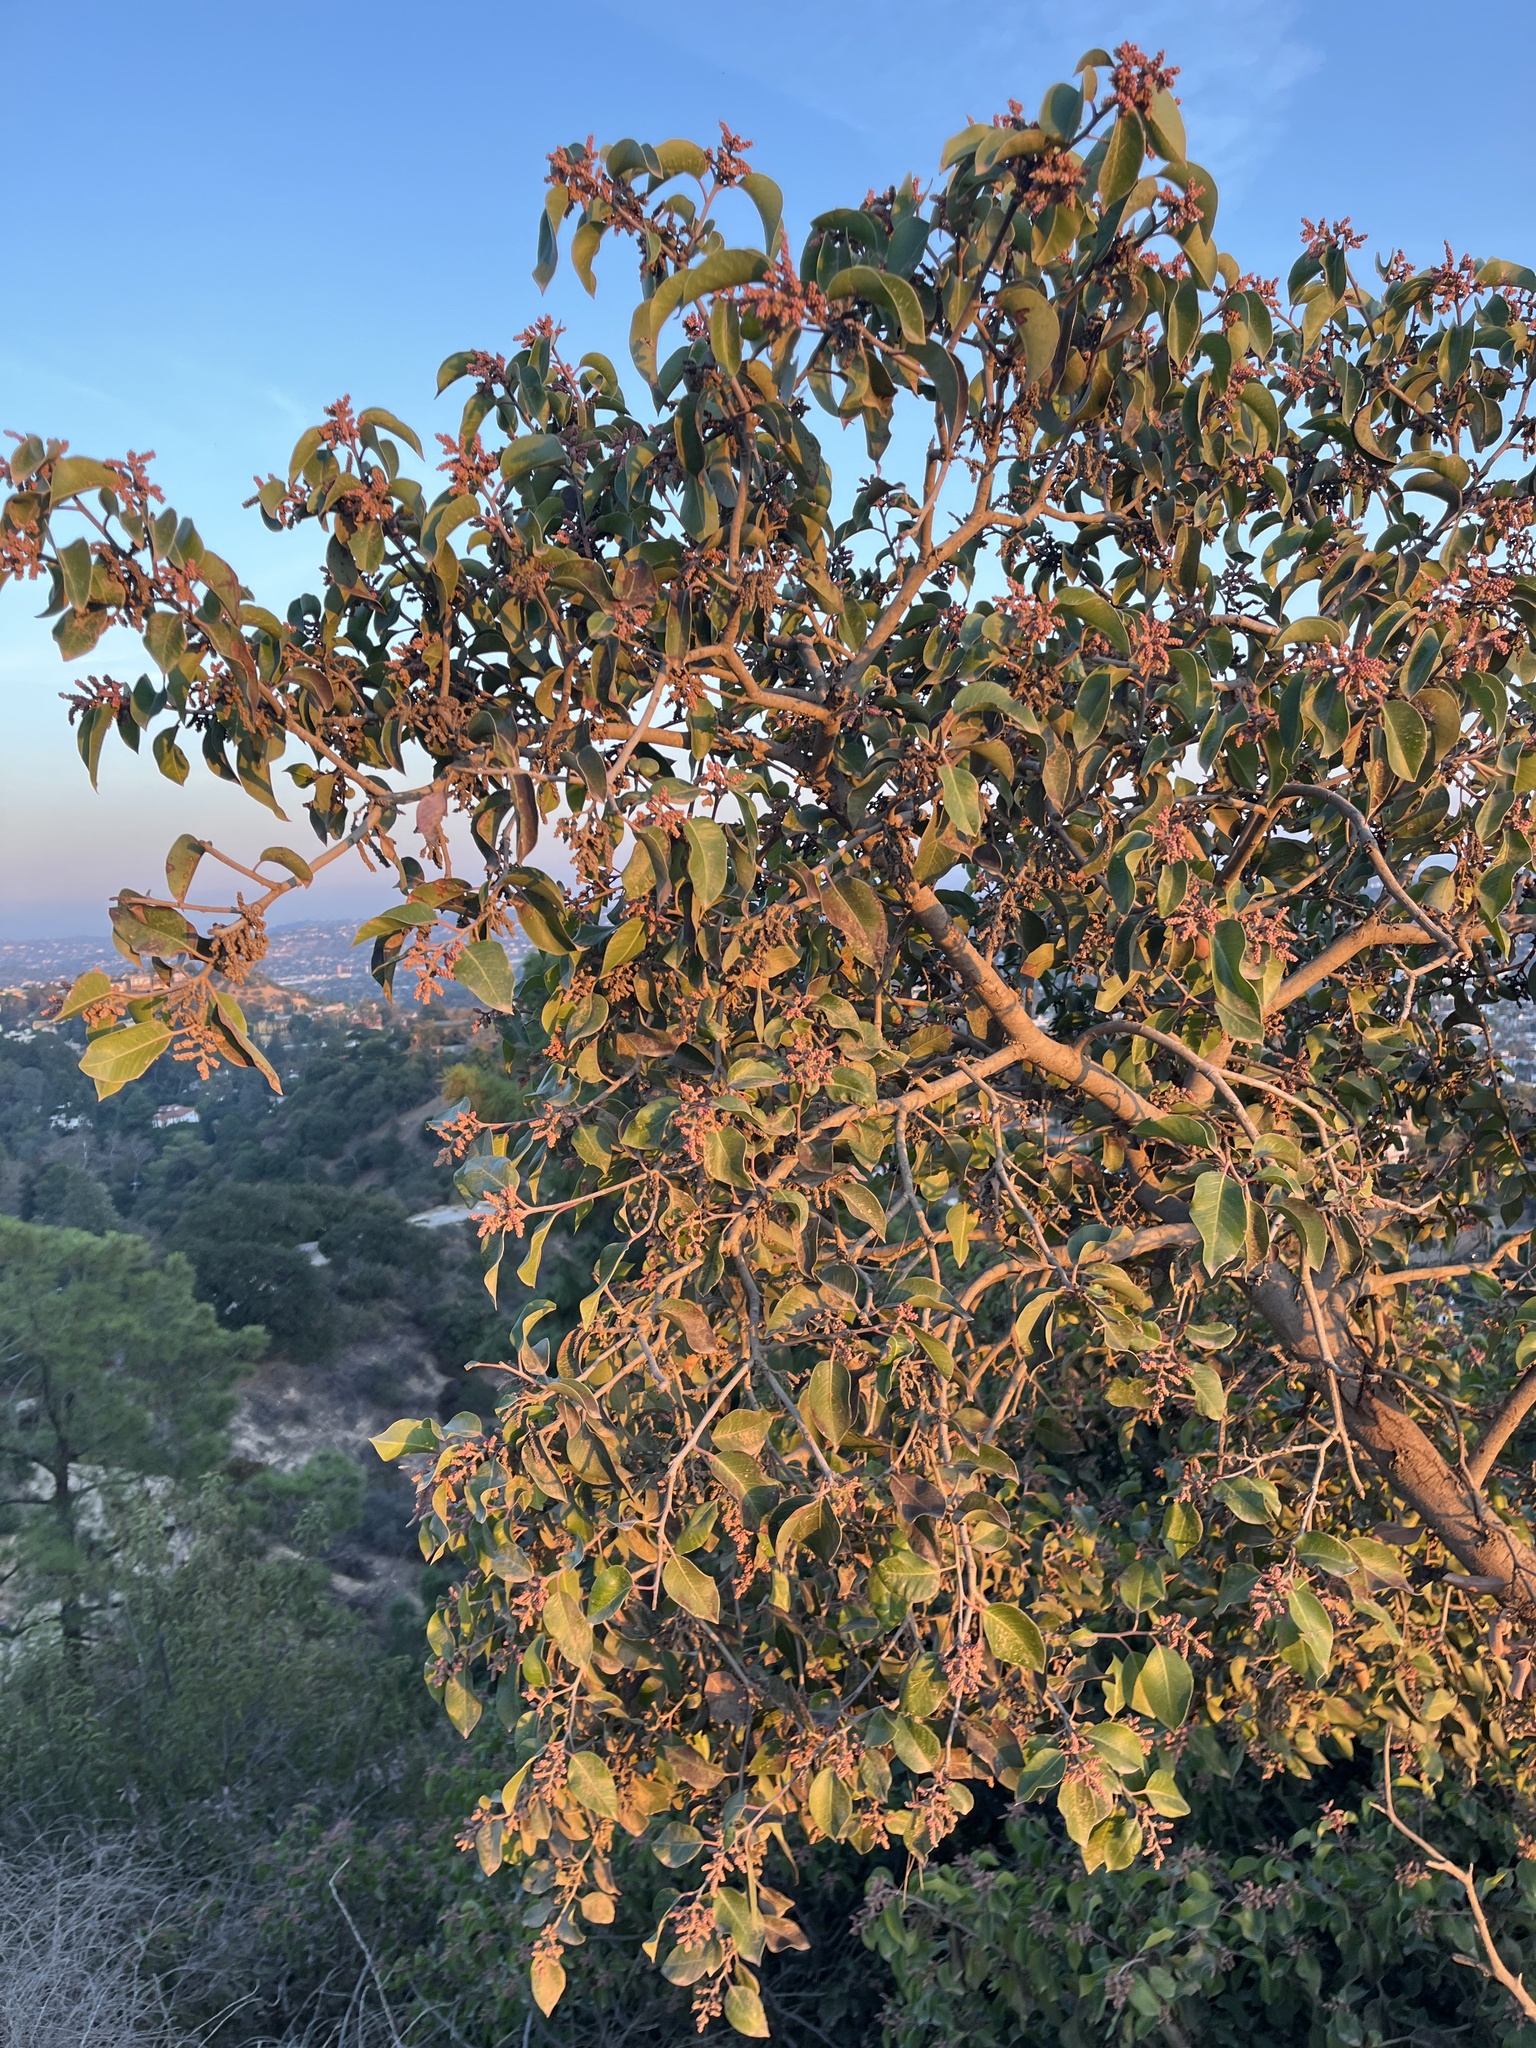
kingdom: Plantae
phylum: Tracheophyta
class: Magnoliopsida
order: Sapindales
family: Anacardiaceae
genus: Rhus
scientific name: Rhus ovata
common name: Sugar sumac
